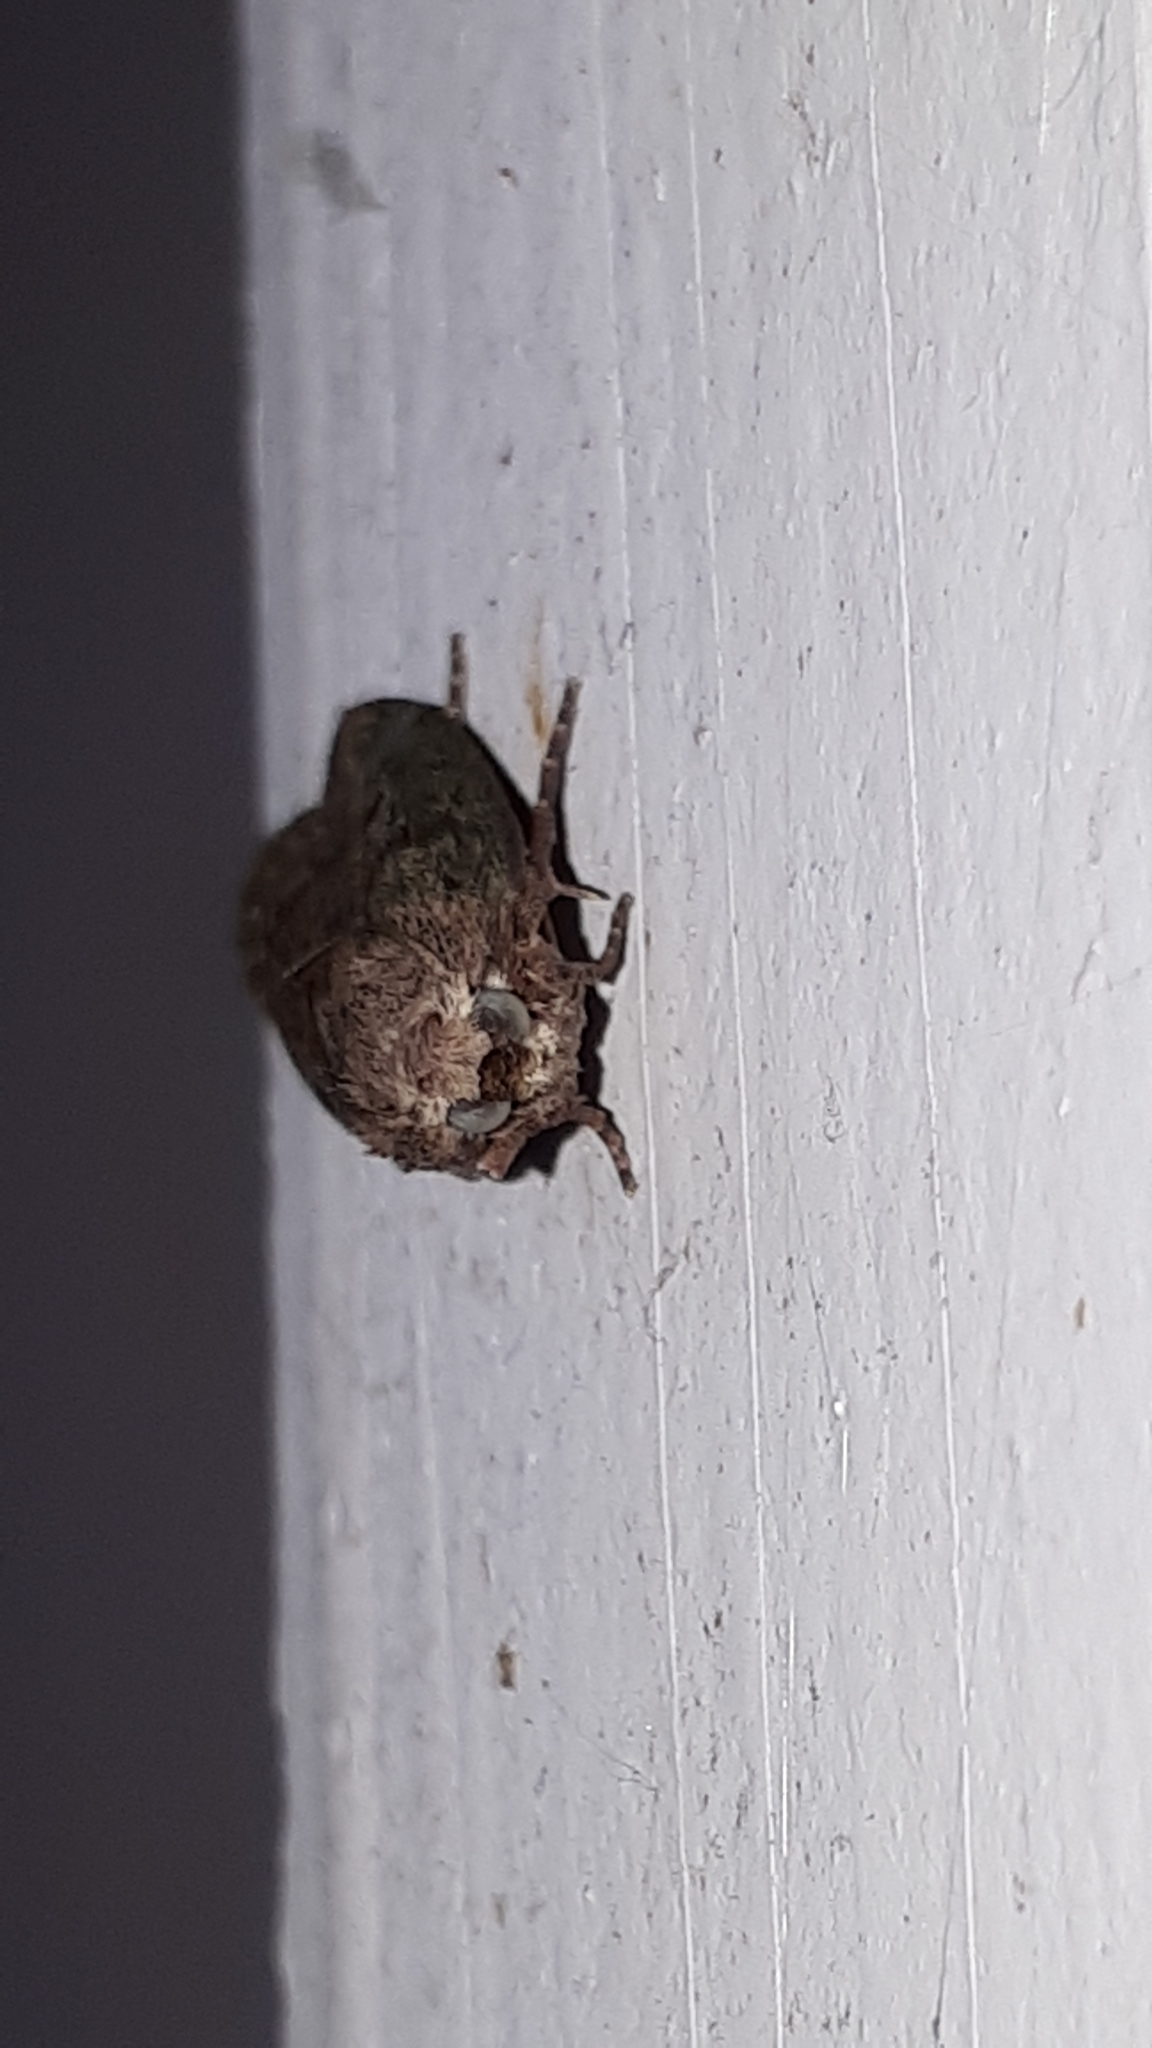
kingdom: Animalia
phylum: Arthropoda
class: Insecta
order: Lepidoptera
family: Pyralidae
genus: Aphomia
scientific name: Aphomia sociella
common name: Bee moth
